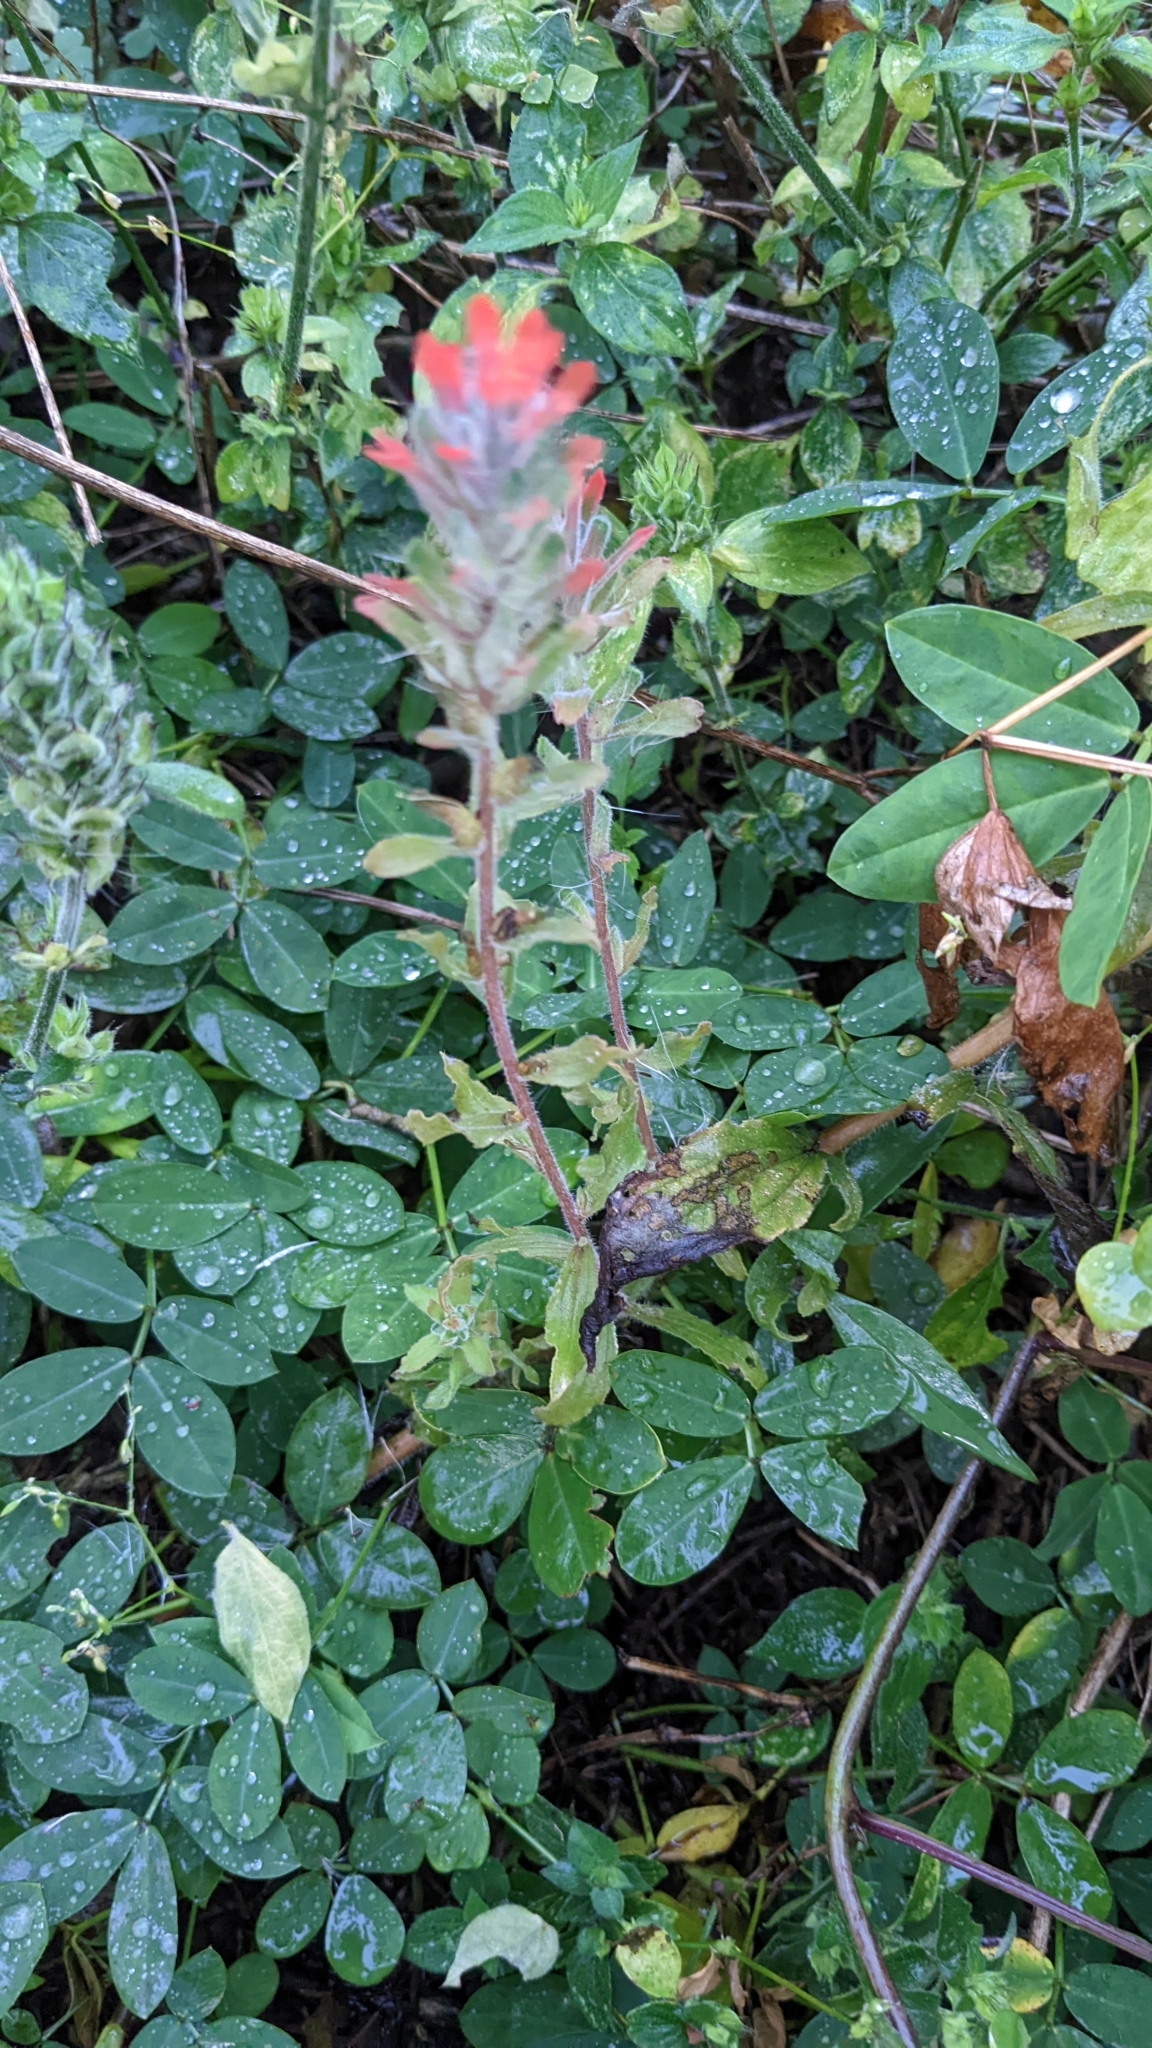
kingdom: Plantae
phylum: Tracheophyta
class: Magnoliopsida
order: Lamiales
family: Orobanchaceae
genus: Castilleja
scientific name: Castilleja arvensis
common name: Indian paintbrush
